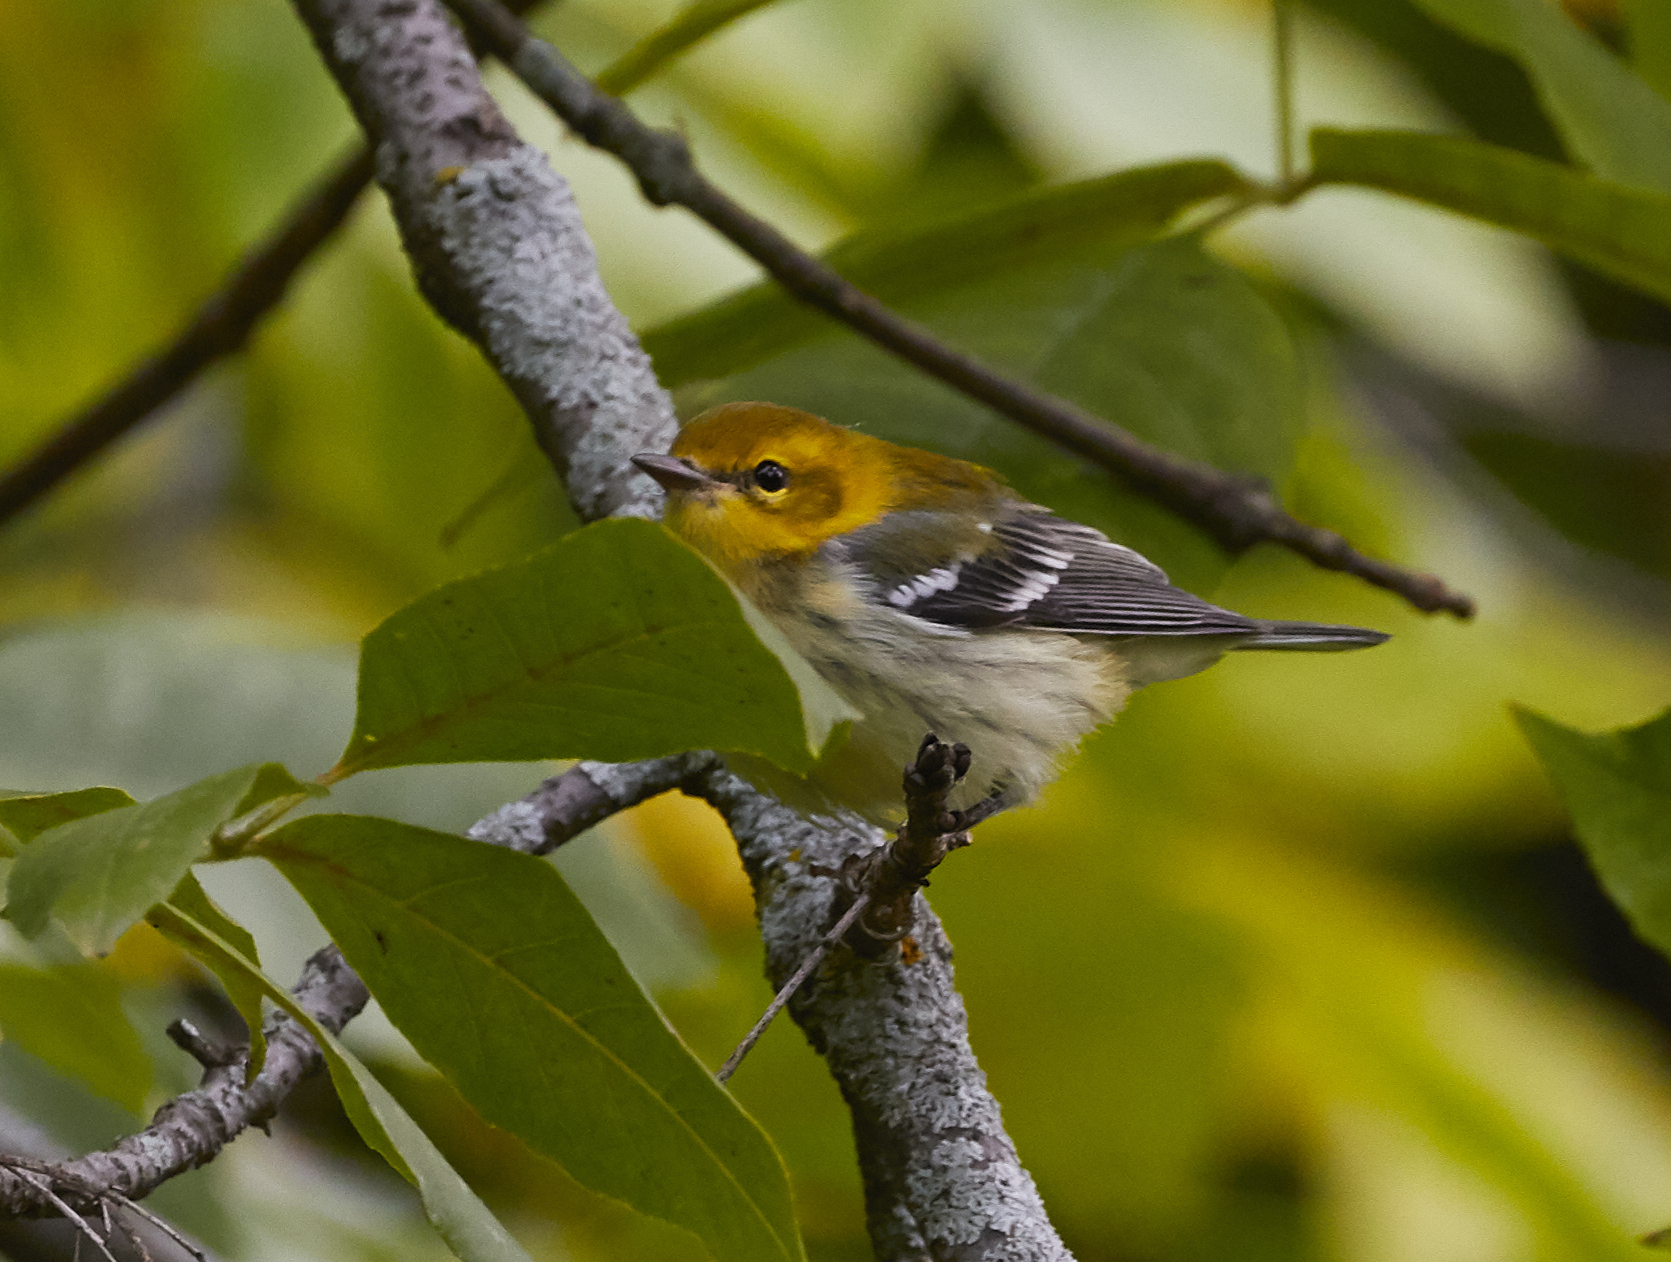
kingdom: Animalia
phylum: Chordata
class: Aves
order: Passeriformes
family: Parulidae
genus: Setophaga
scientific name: Setophaga virens
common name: Black-throated green warbler
